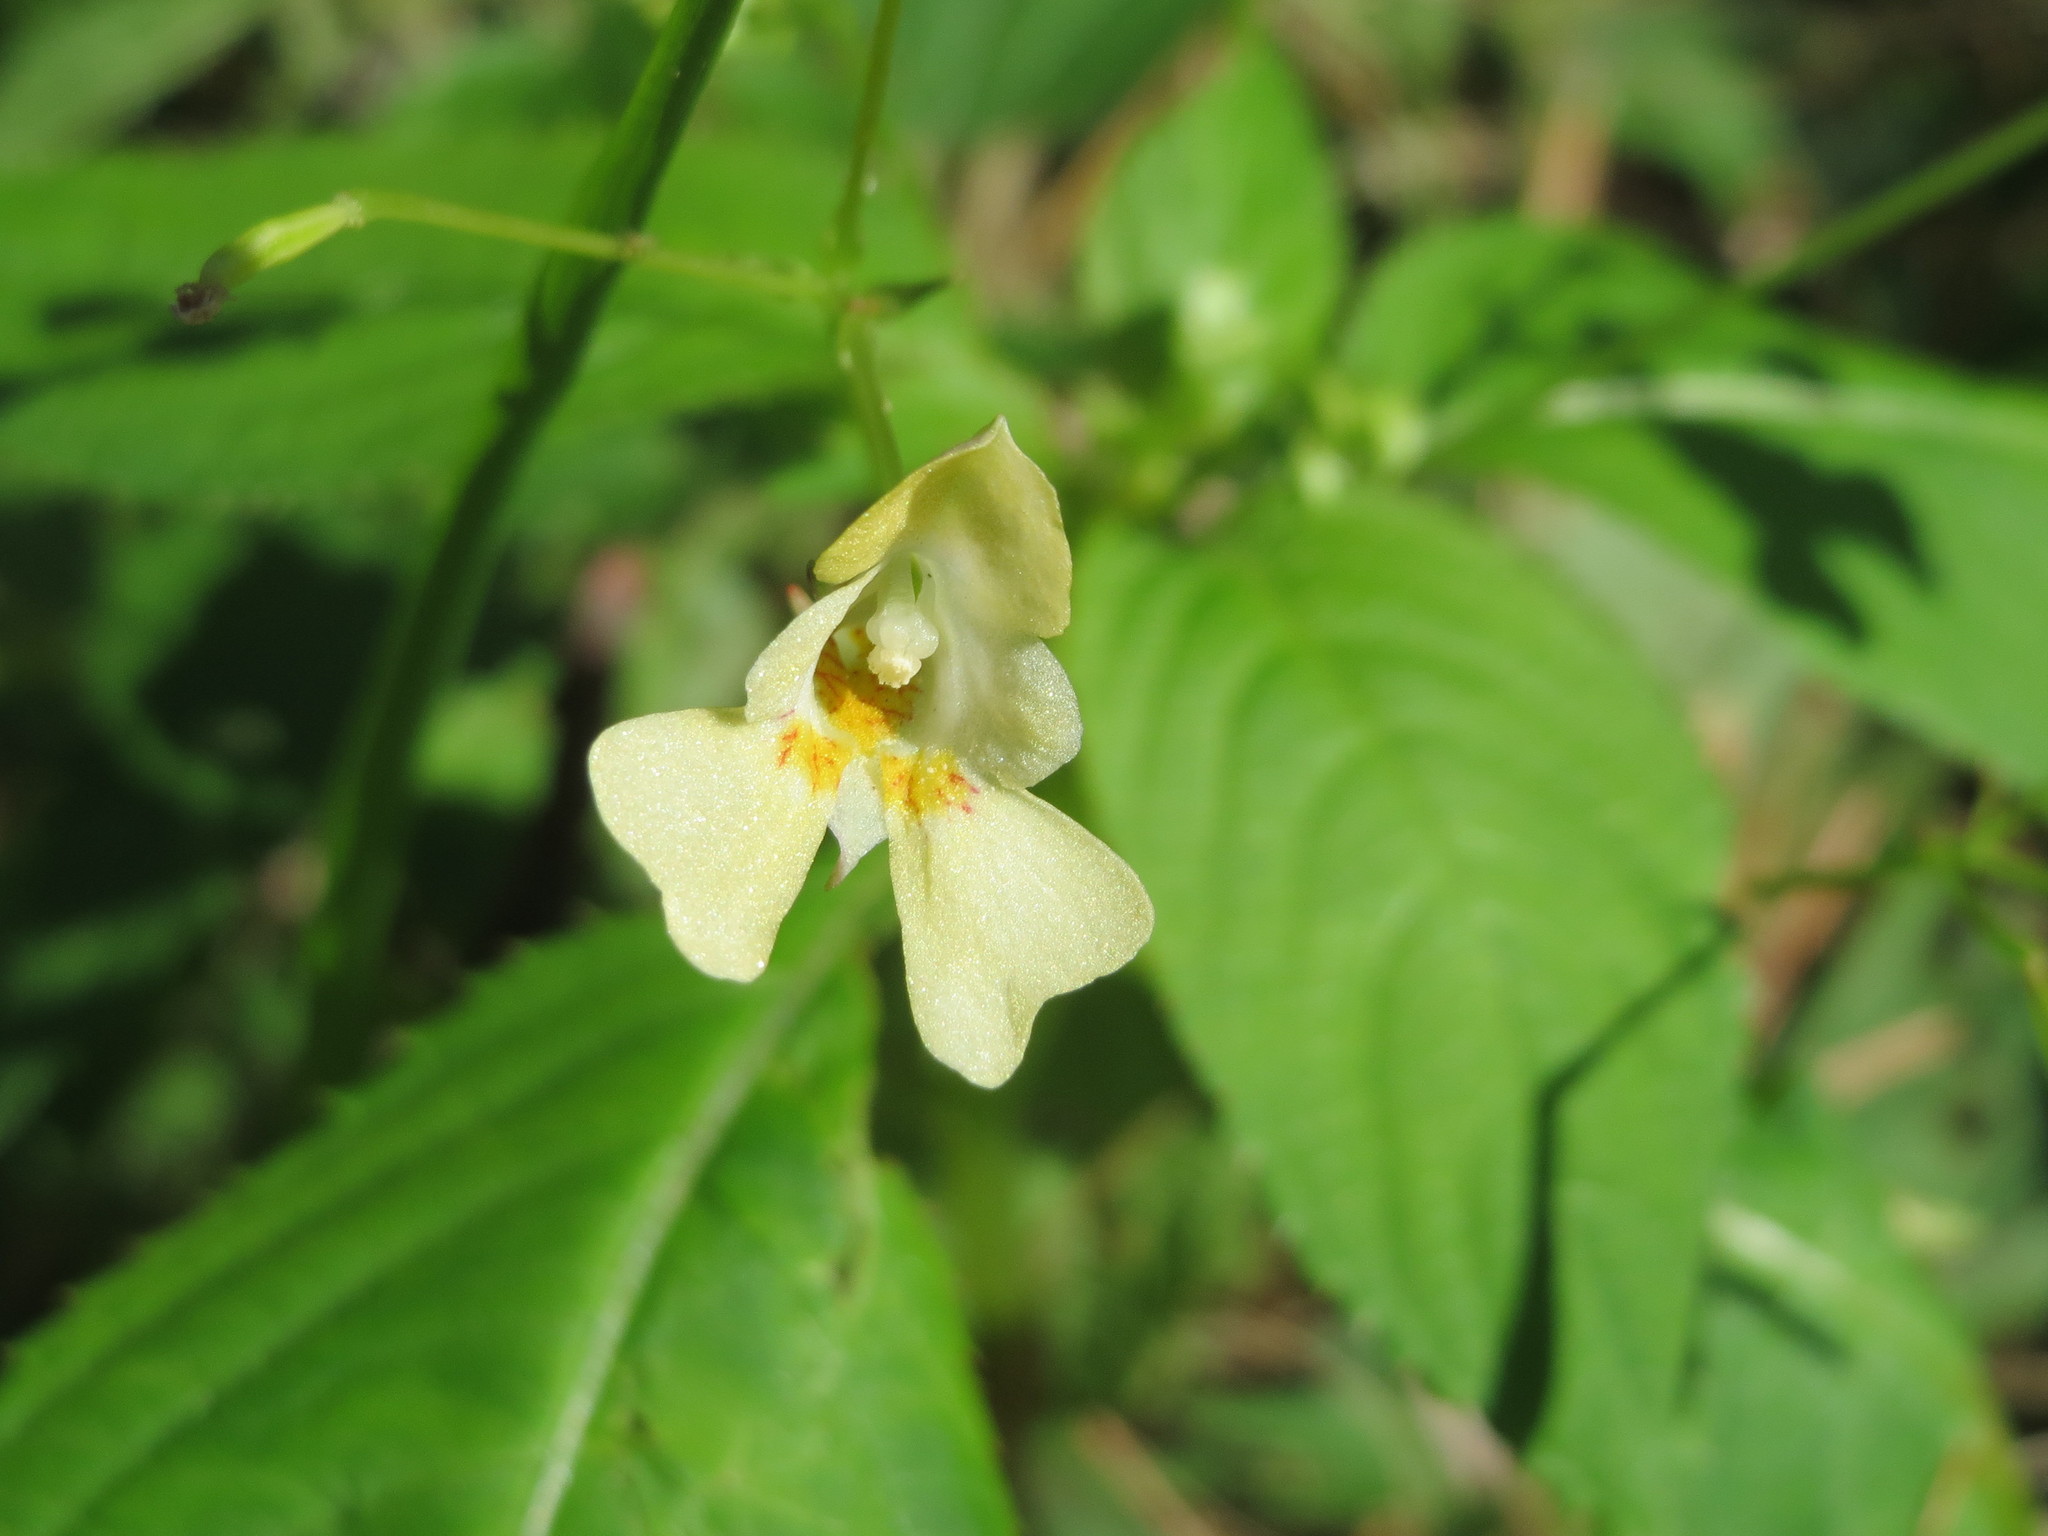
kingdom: Plantae
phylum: Tracheophyta
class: Magnoliopsida
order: Ericales
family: Balsaminaceae
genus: Impatiens
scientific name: Impatiens parviflora
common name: Small balsam
